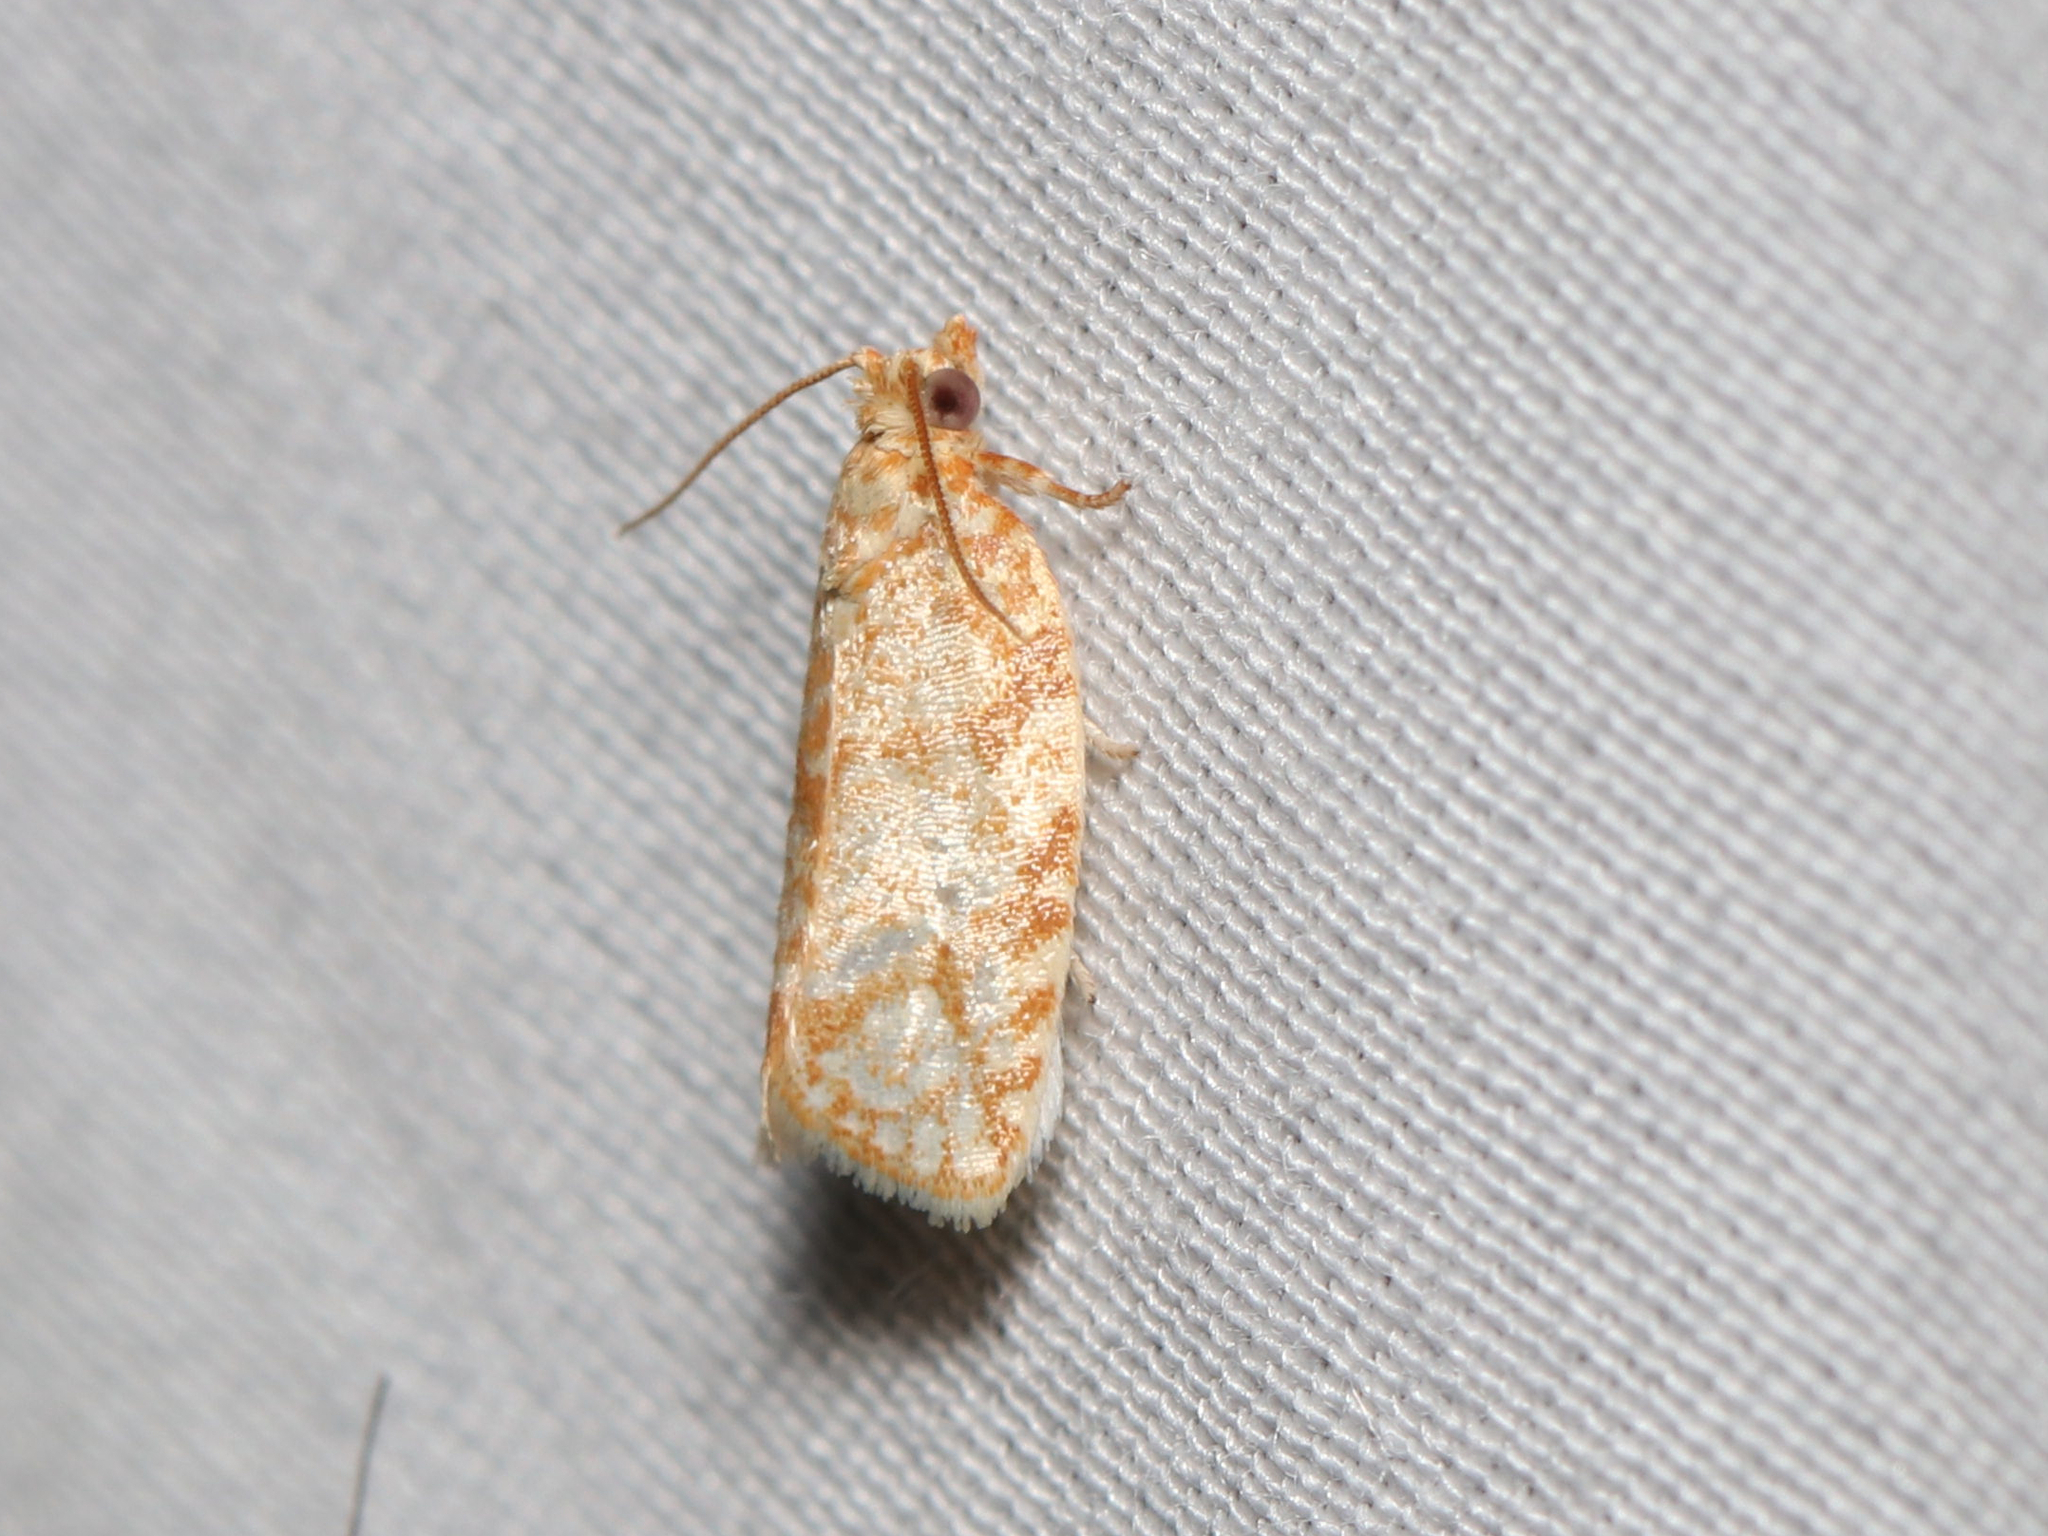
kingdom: Animalia
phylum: Arthropoda
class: Insecta
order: Lepidoptera
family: Tortricidae
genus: Argyrotaenia
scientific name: Argyrotaenia quercifoliana
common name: Yellow-winged oak leafroller moth
